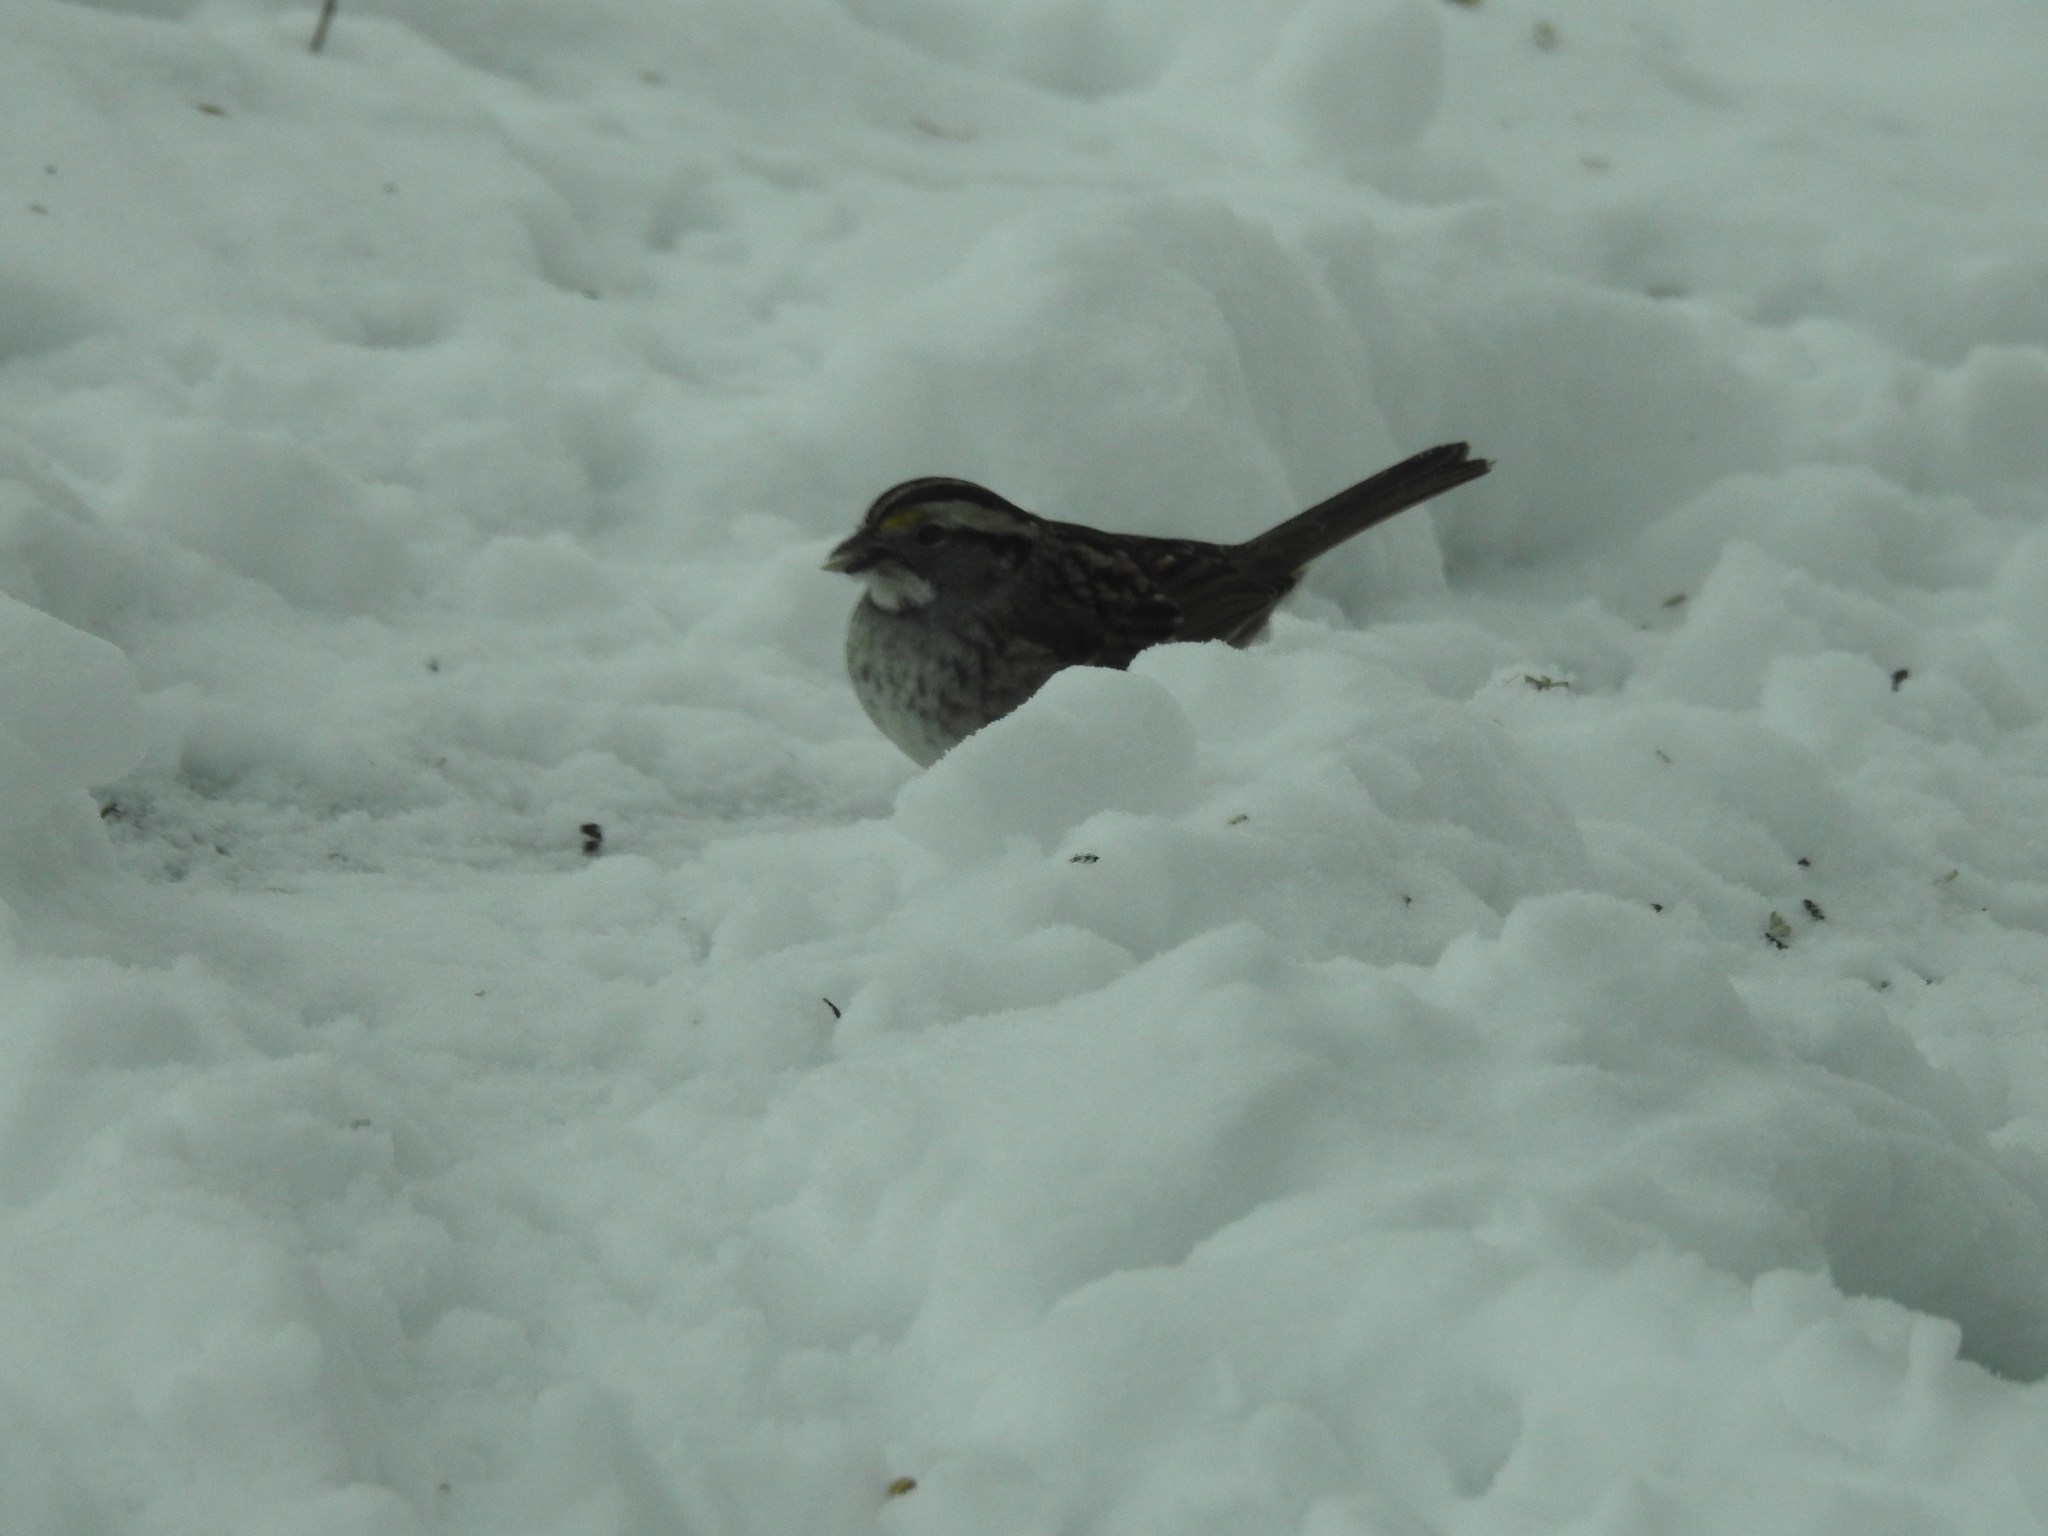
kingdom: Animalia
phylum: Chordata
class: Aves
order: Passeriformes
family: Passerellidae
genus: Zonotrichia
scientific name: Zonotrichia albicollis
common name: White-throated sparrow
